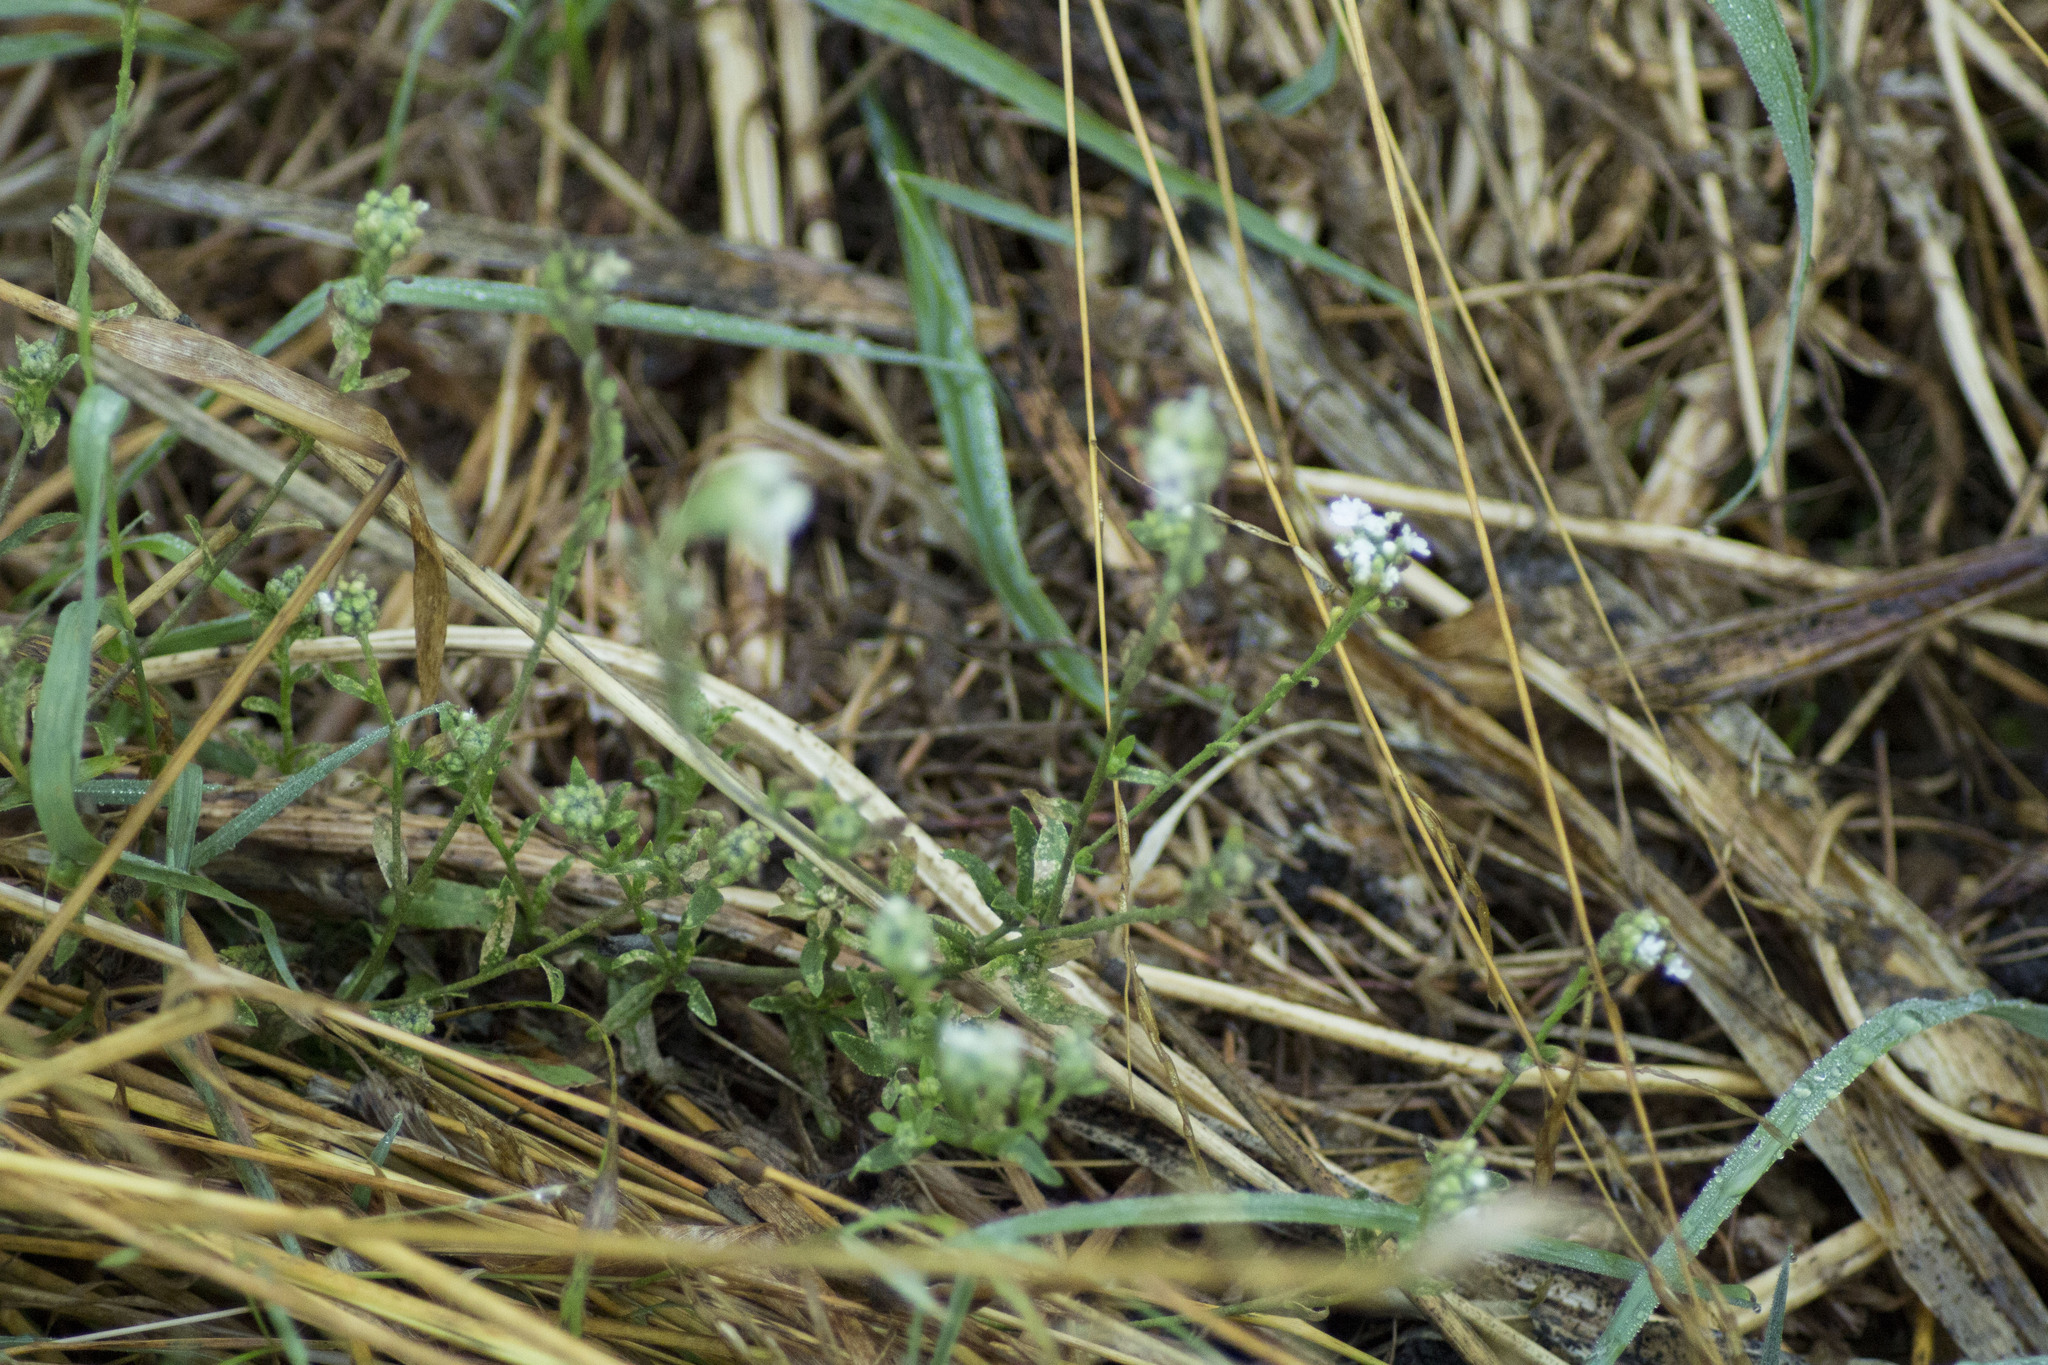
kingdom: Plantae
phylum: Tracheophyta
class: Magnoliopsida
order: Brassicales
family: Brassicaceae
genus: Berteroa
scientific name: Berteroa incana
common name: Hoary alison
